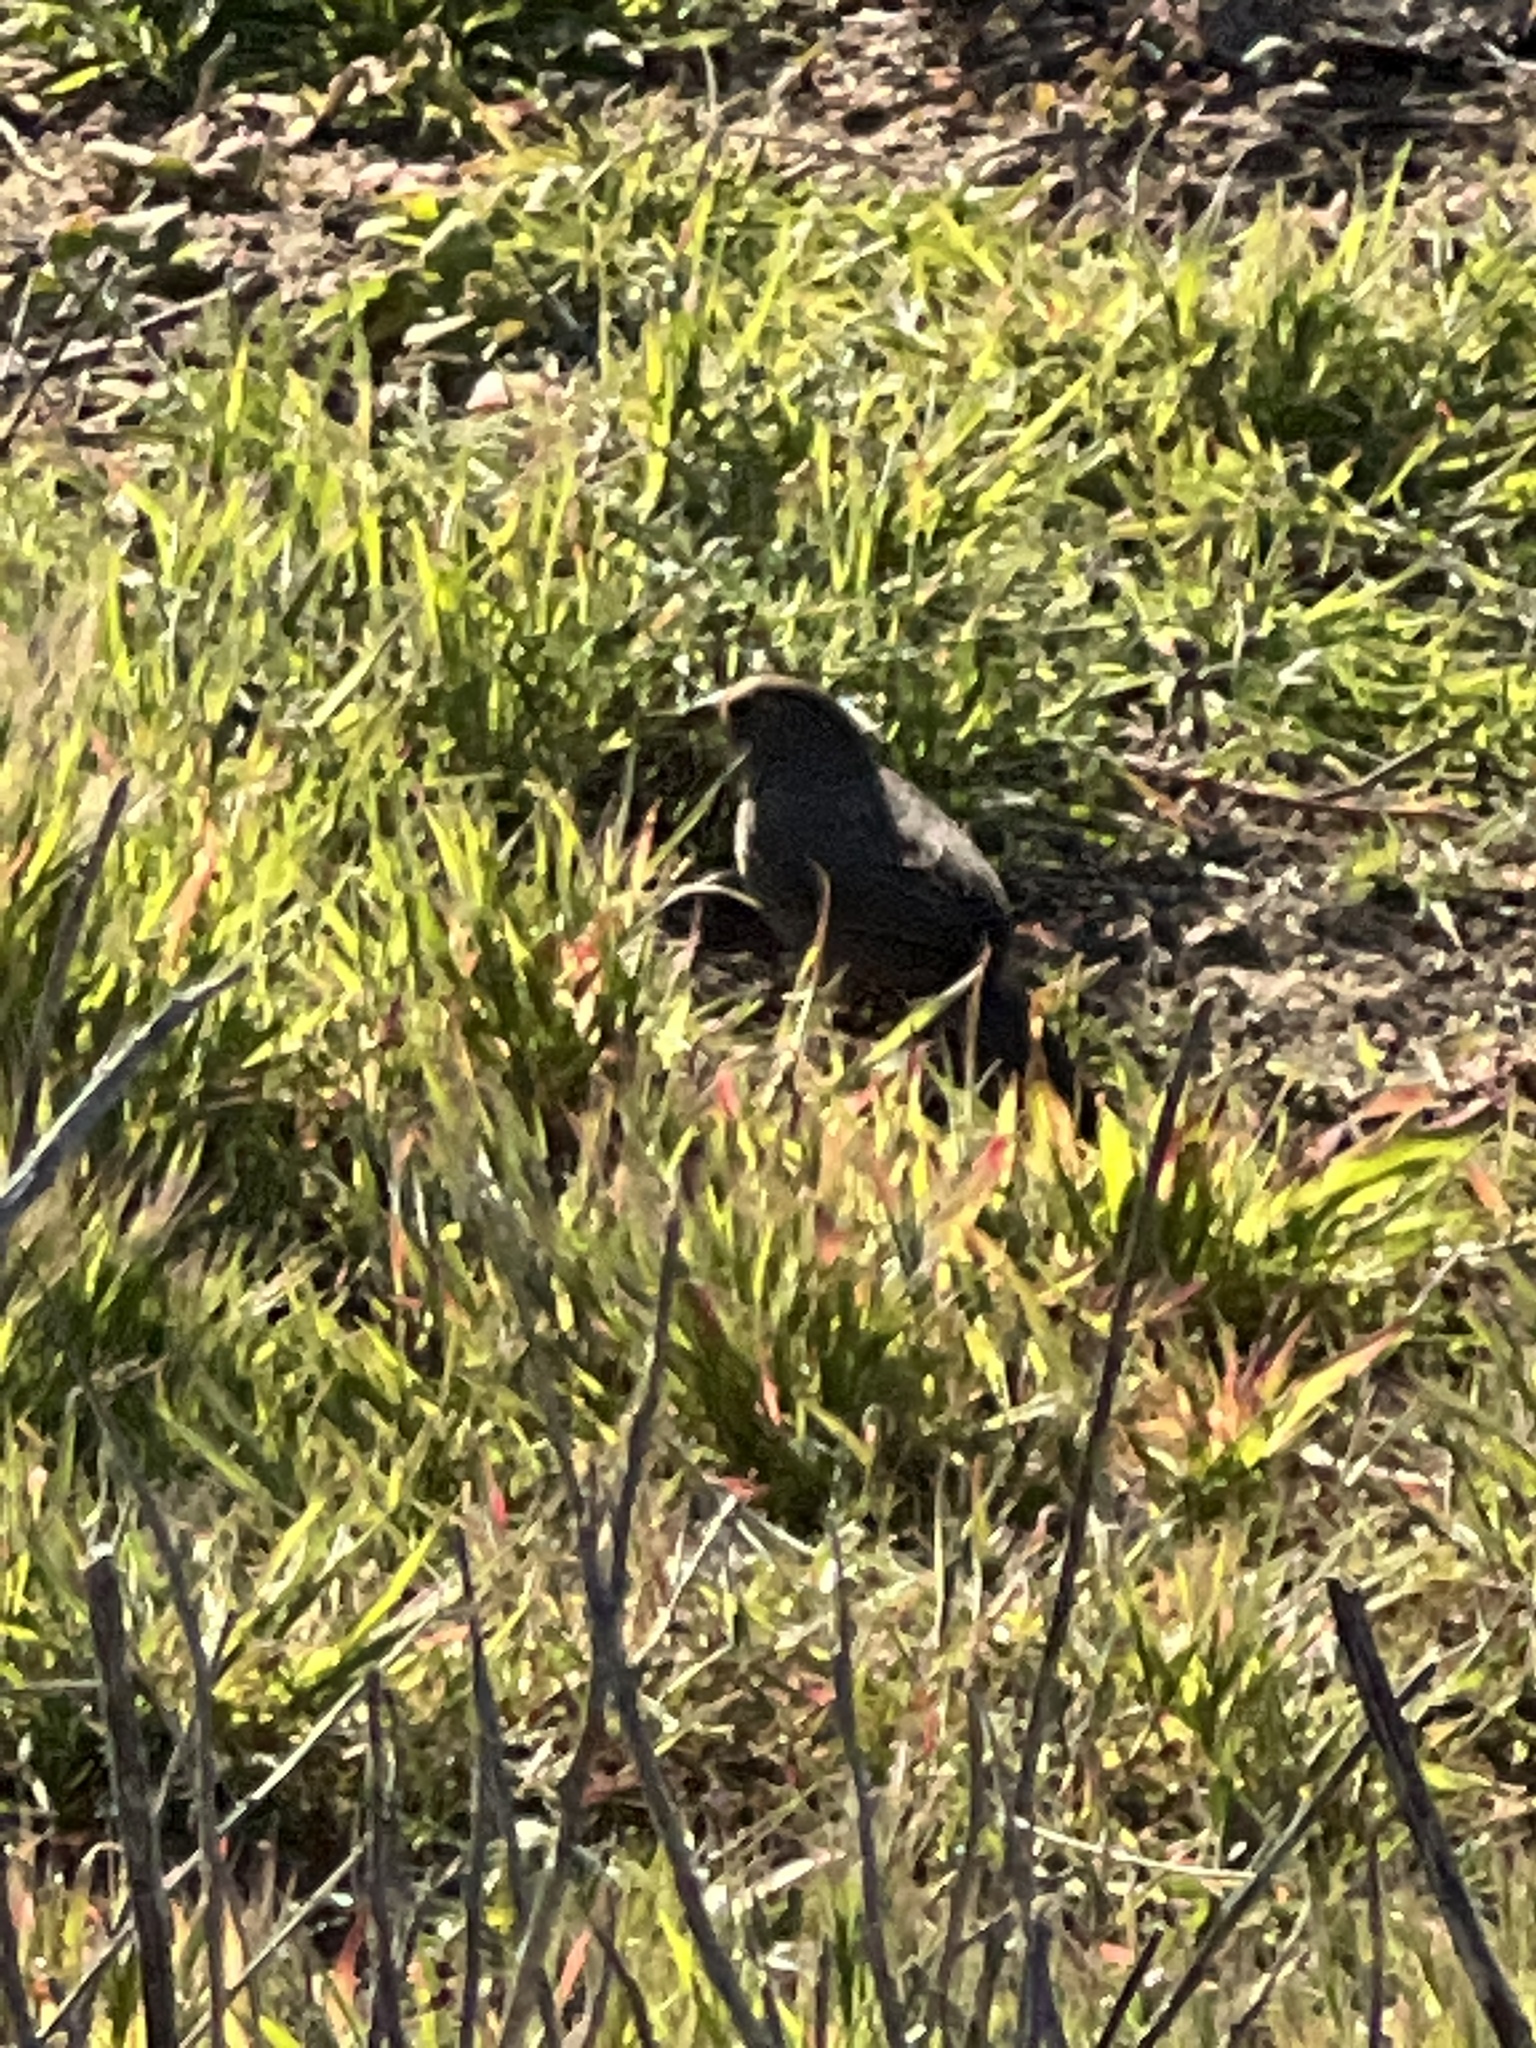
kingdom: Animalia
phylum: Chordata
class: Aves
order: Passeriformes
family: Passerellidae
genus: Melozone
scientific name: Melozone crissalis
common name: California towhee
